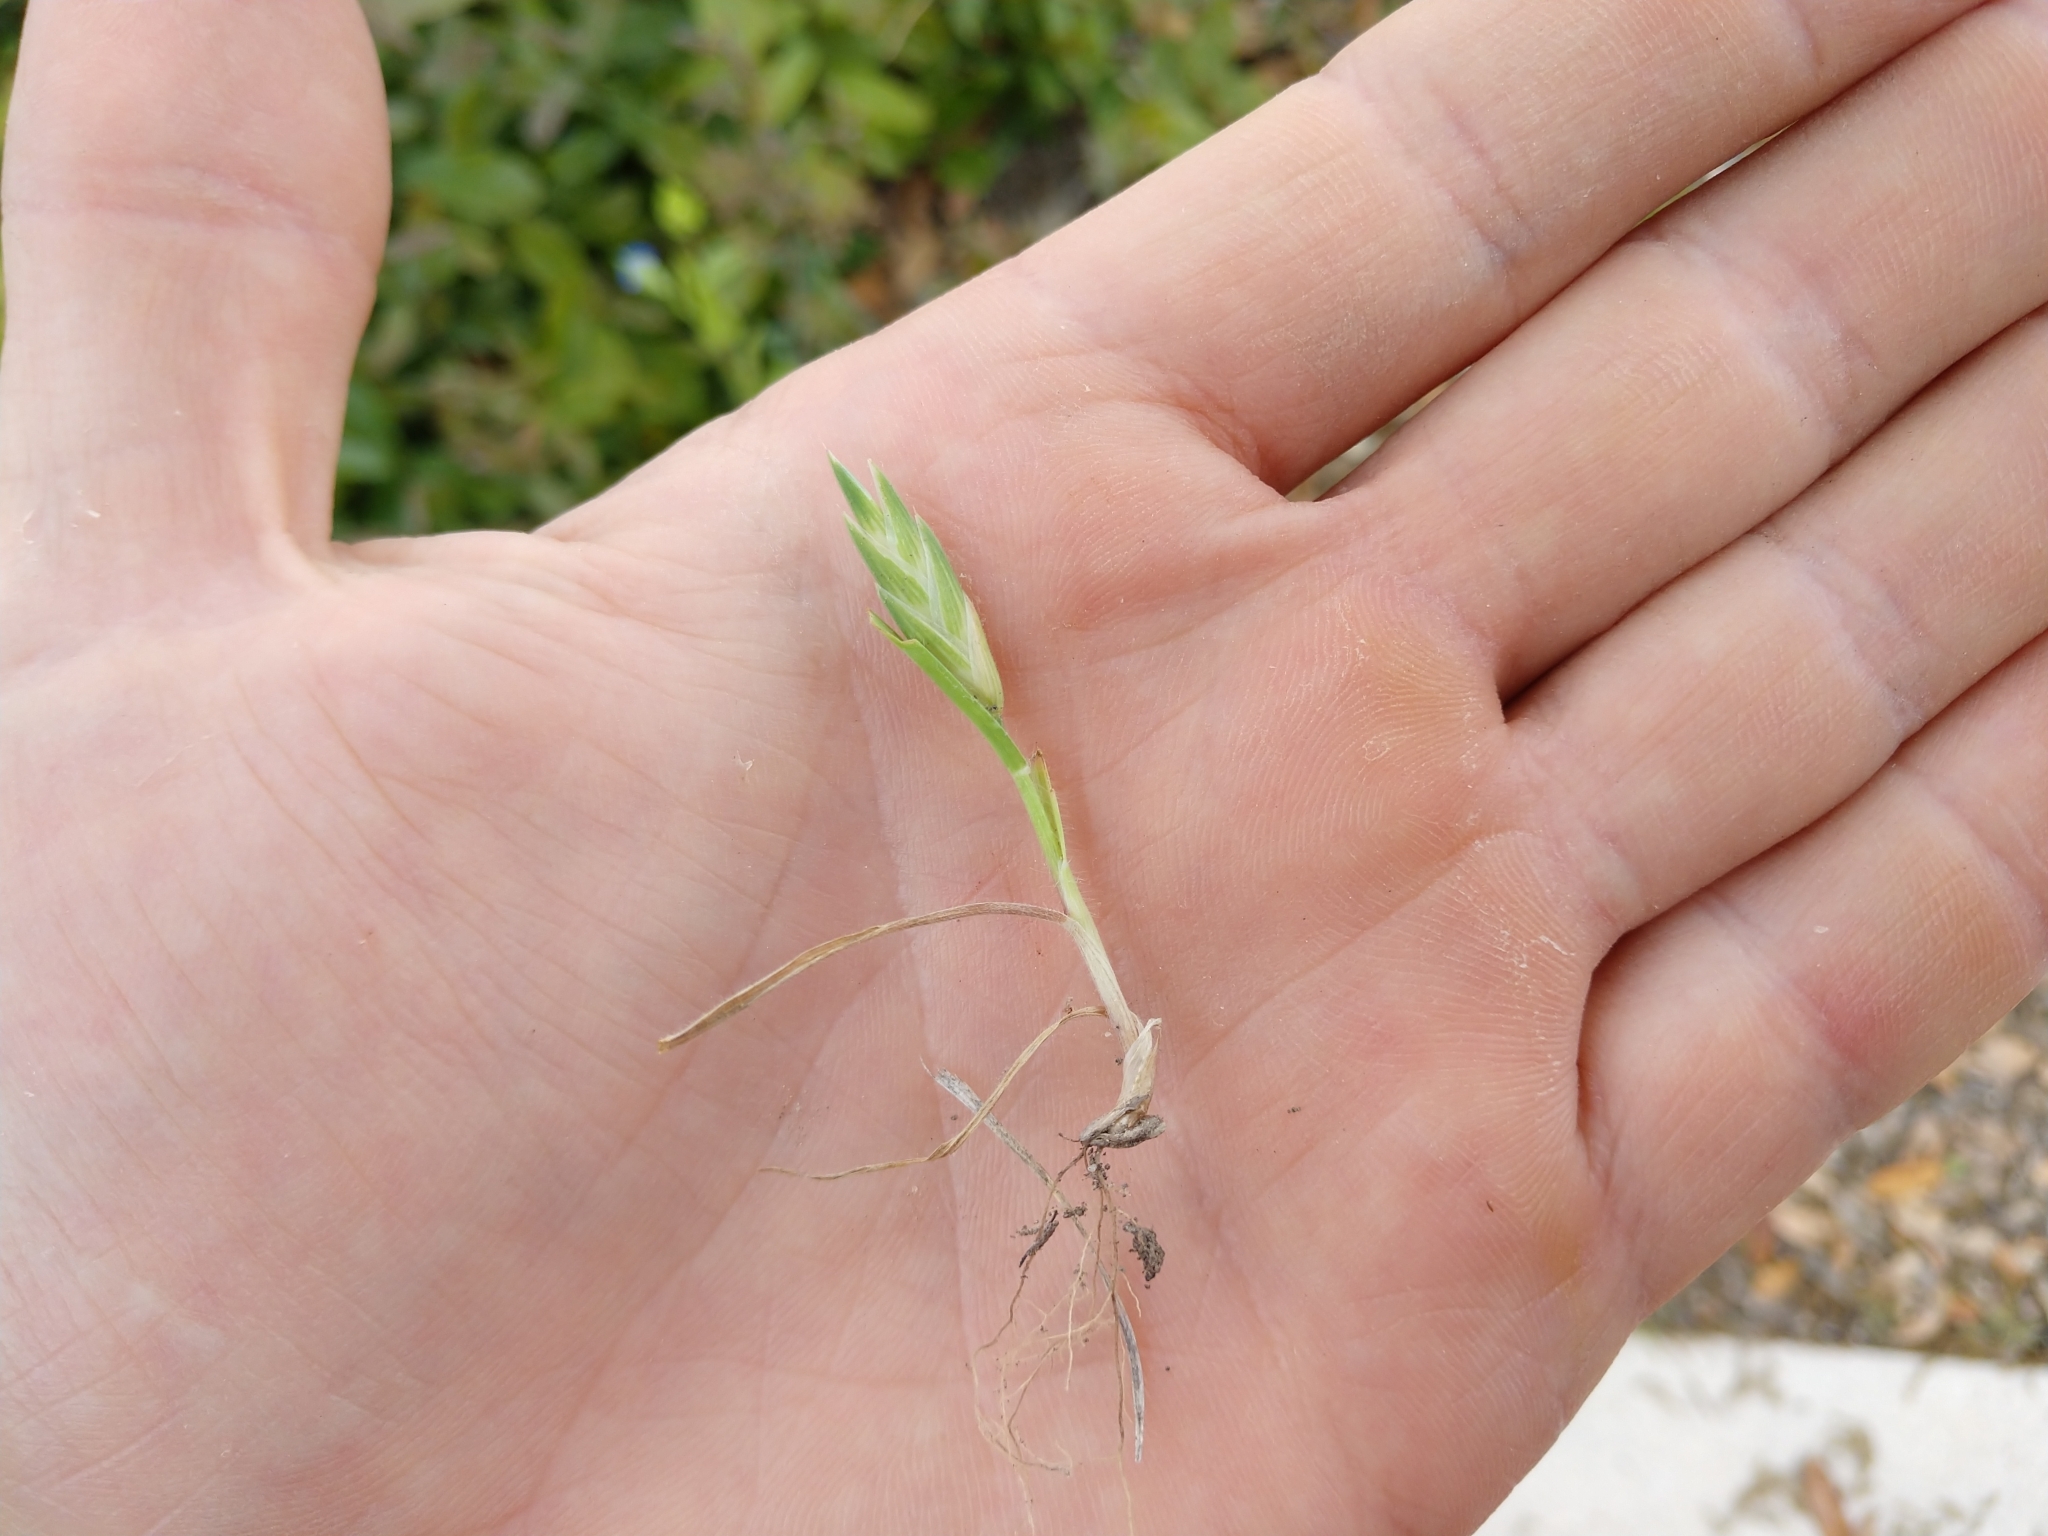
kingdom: Plantae
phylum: Tracheophyta
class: Liliopsida
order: Poales
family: Poaceae
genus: Bromus
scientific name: Bromus catharticus
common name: Rescuegrass
